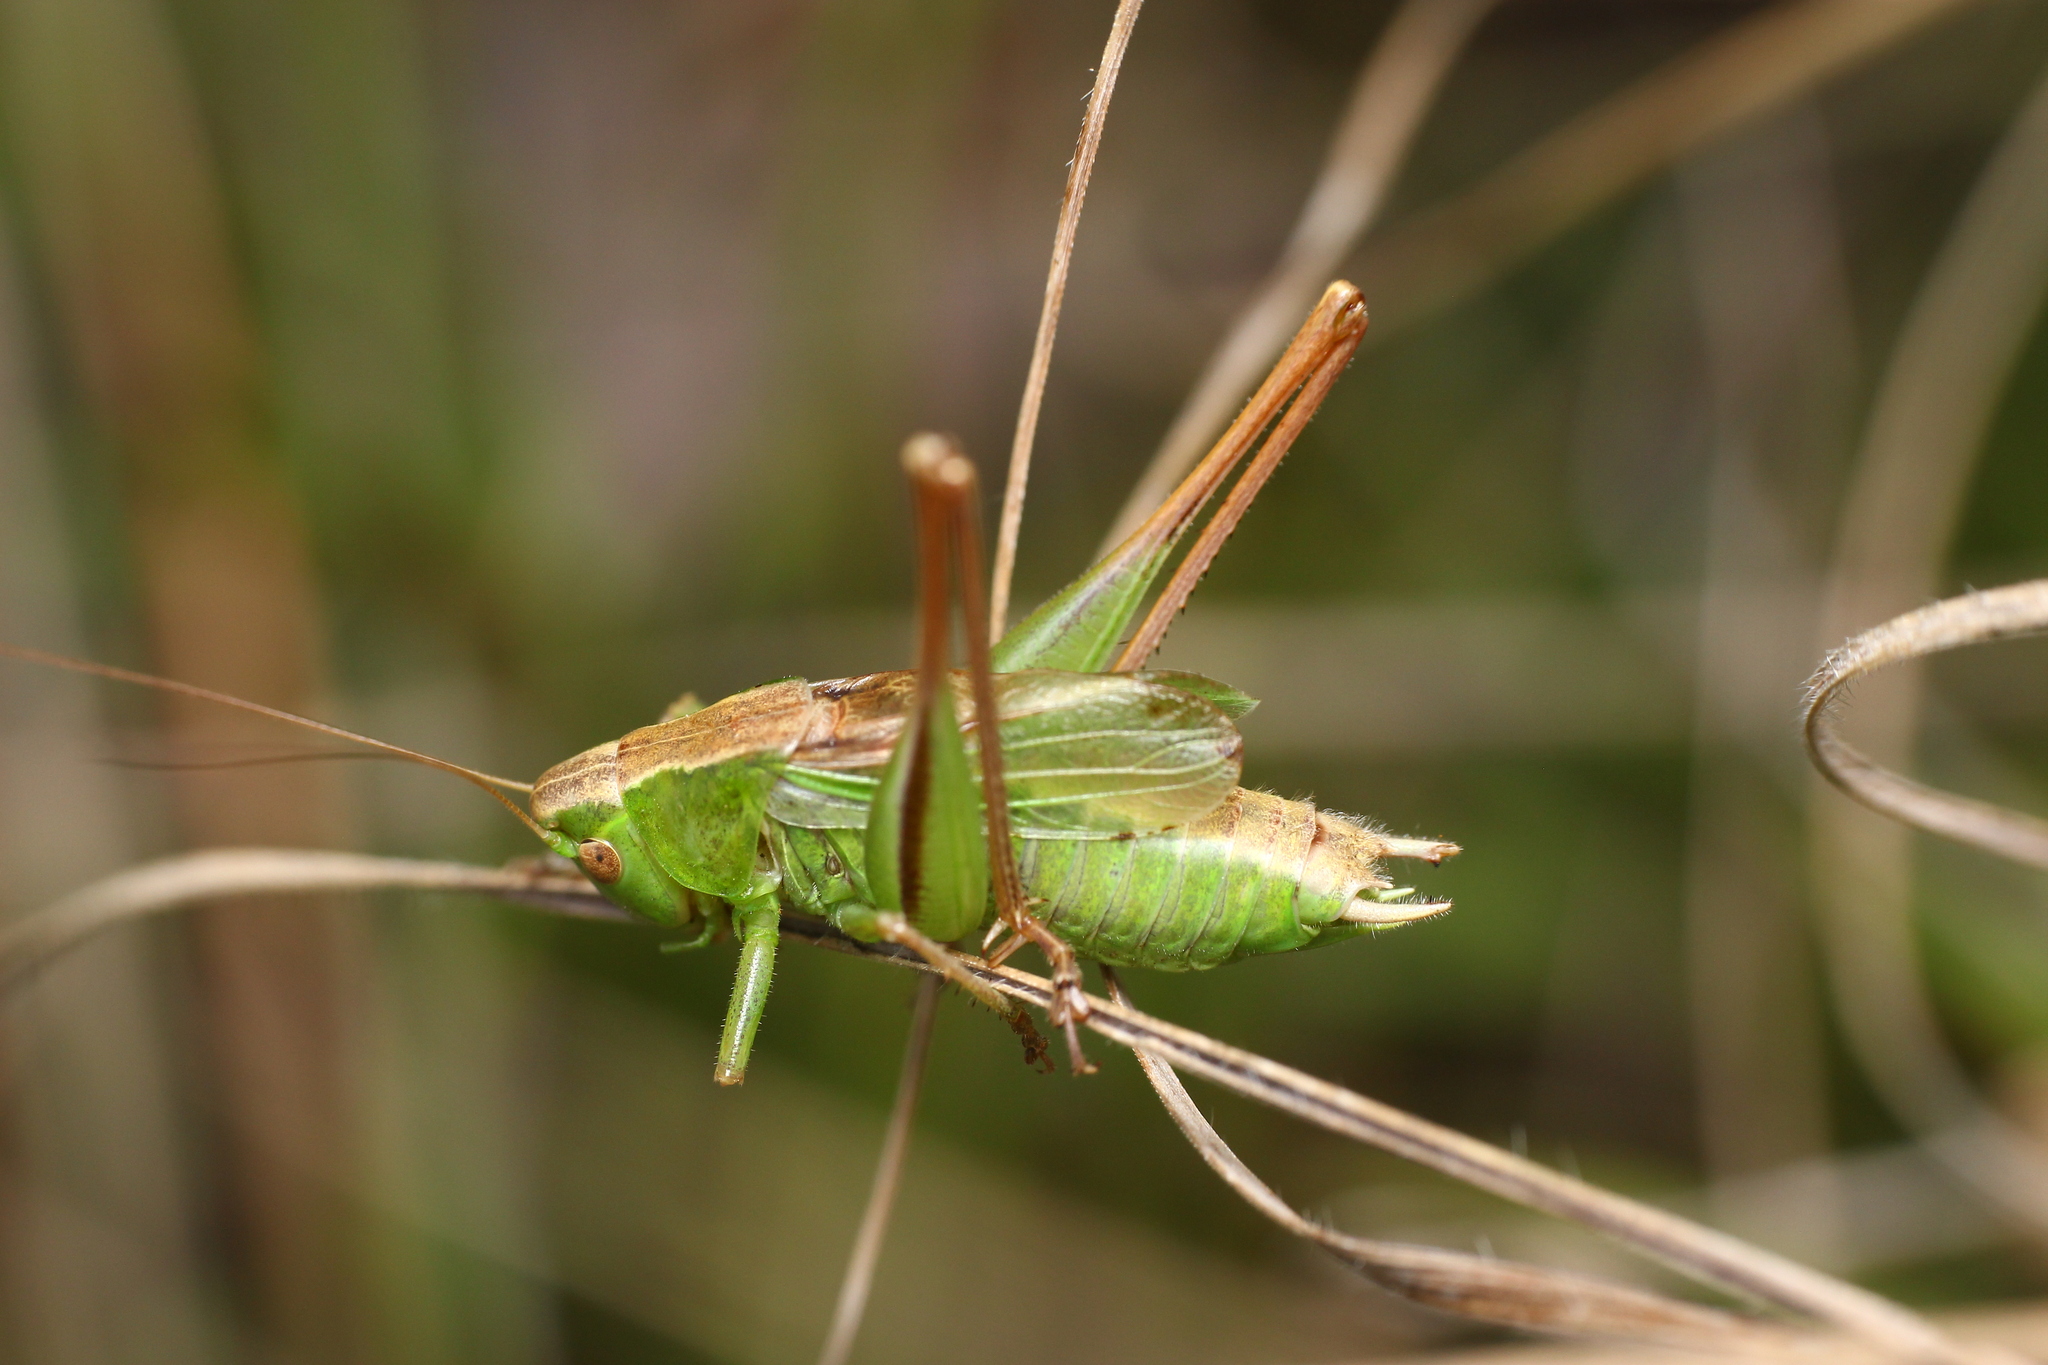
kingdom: Animalia
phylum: Arthropoda
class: Insecta
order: Orthoptera
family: Tettigoniidae
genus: Bicolorana
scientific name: Bicolorana bicolor
